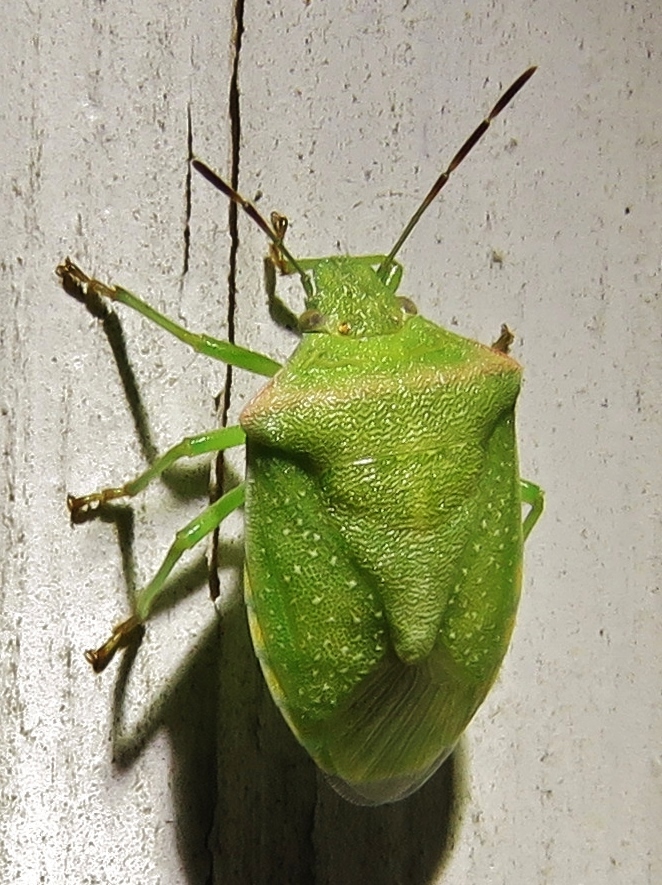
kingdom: Animalia
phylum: Arthropoda
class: Insecta
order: Hemiptera
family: Pentatomidae
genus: Thyanta
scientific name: Thyanta custator
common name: Stink bug
